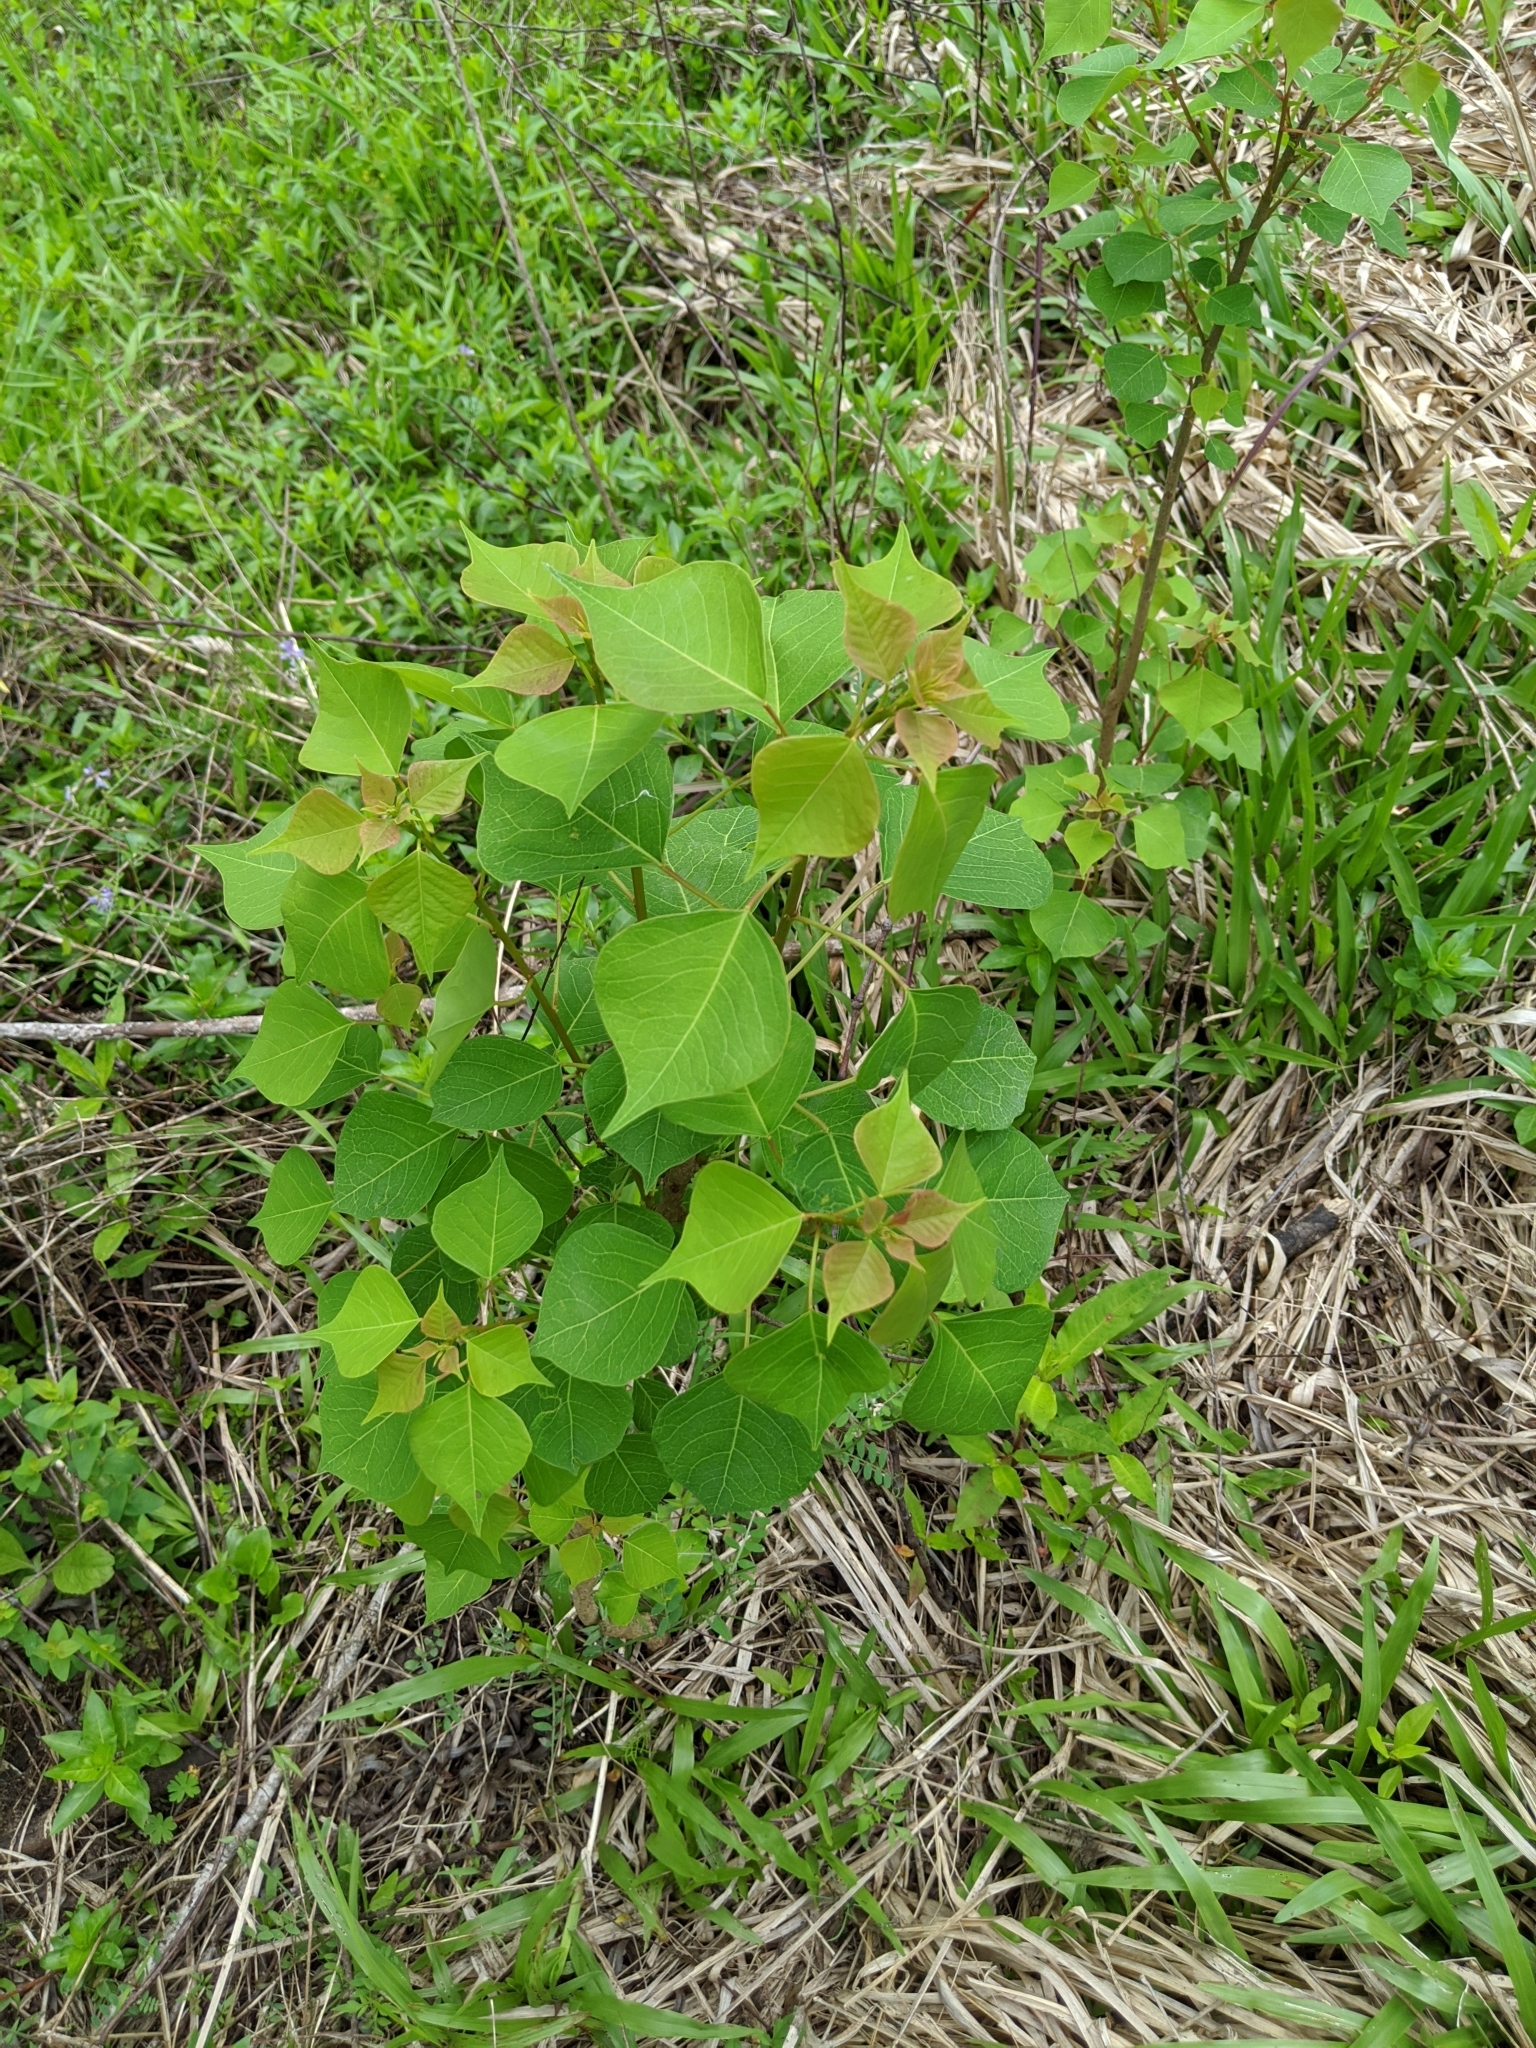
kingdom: Plantae
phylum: Tracheophyta
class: Magnoliopsida
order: Malpighiales
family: Euphorbiaceae
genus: Triadica
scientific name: Triadica sebifera
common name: Chinese tallow
